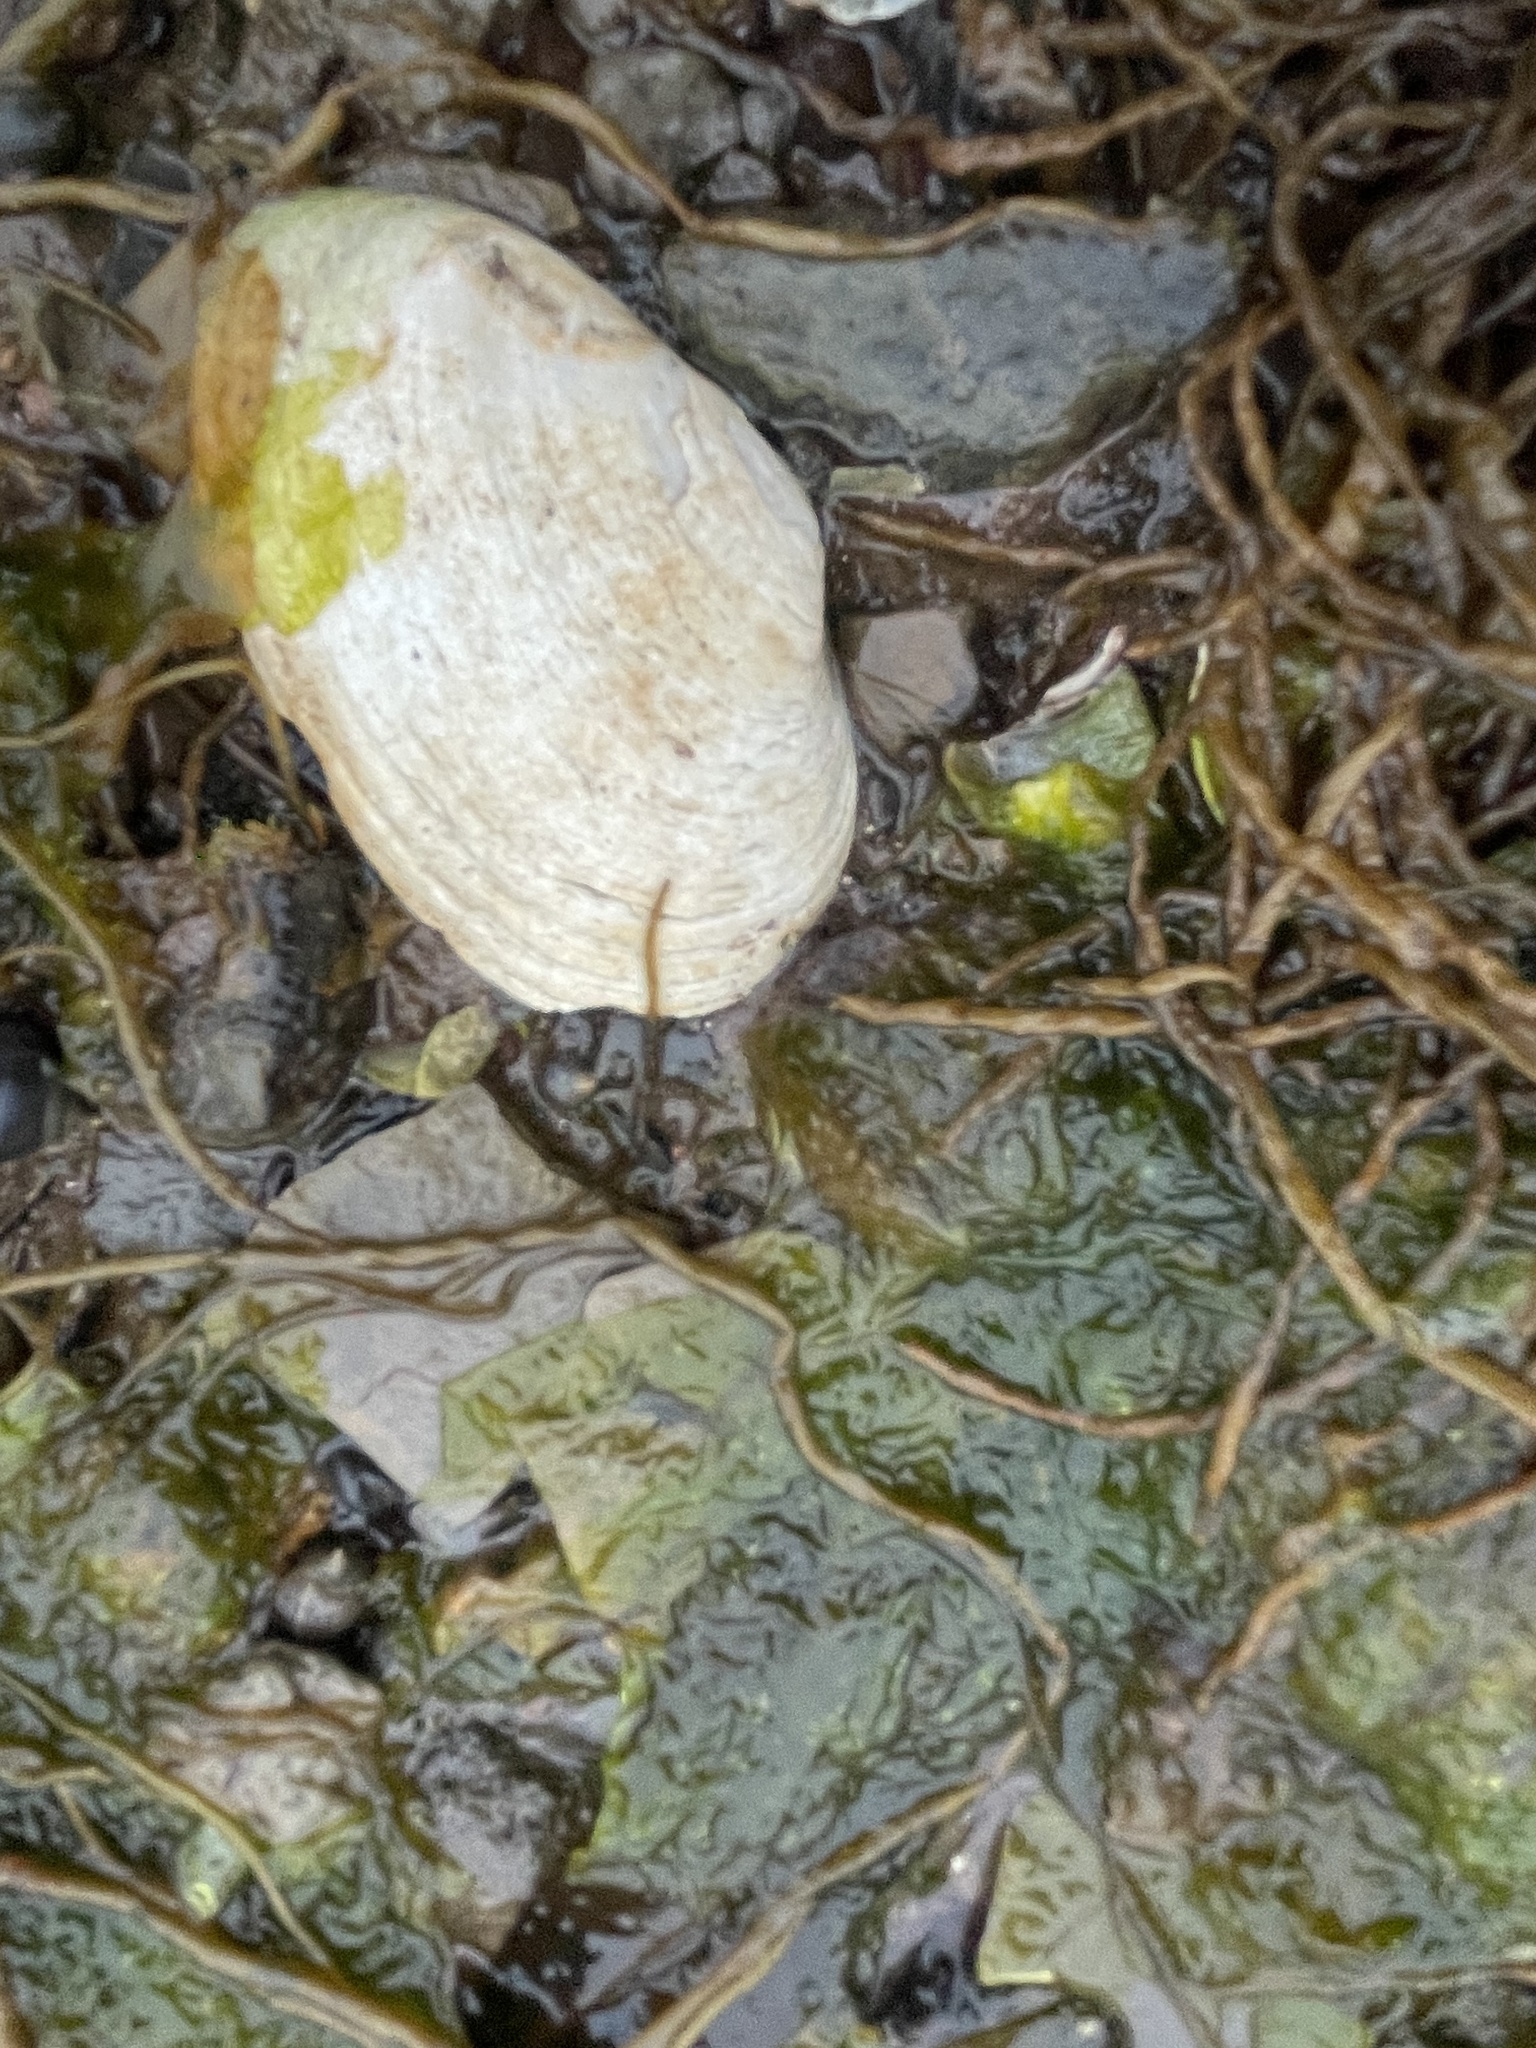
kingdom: Animalia
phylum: Mollusca
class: Bivalvia
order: Myida
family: Myidae
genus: Mya
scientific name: Mya arenaria
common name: Soft-shelled clam
